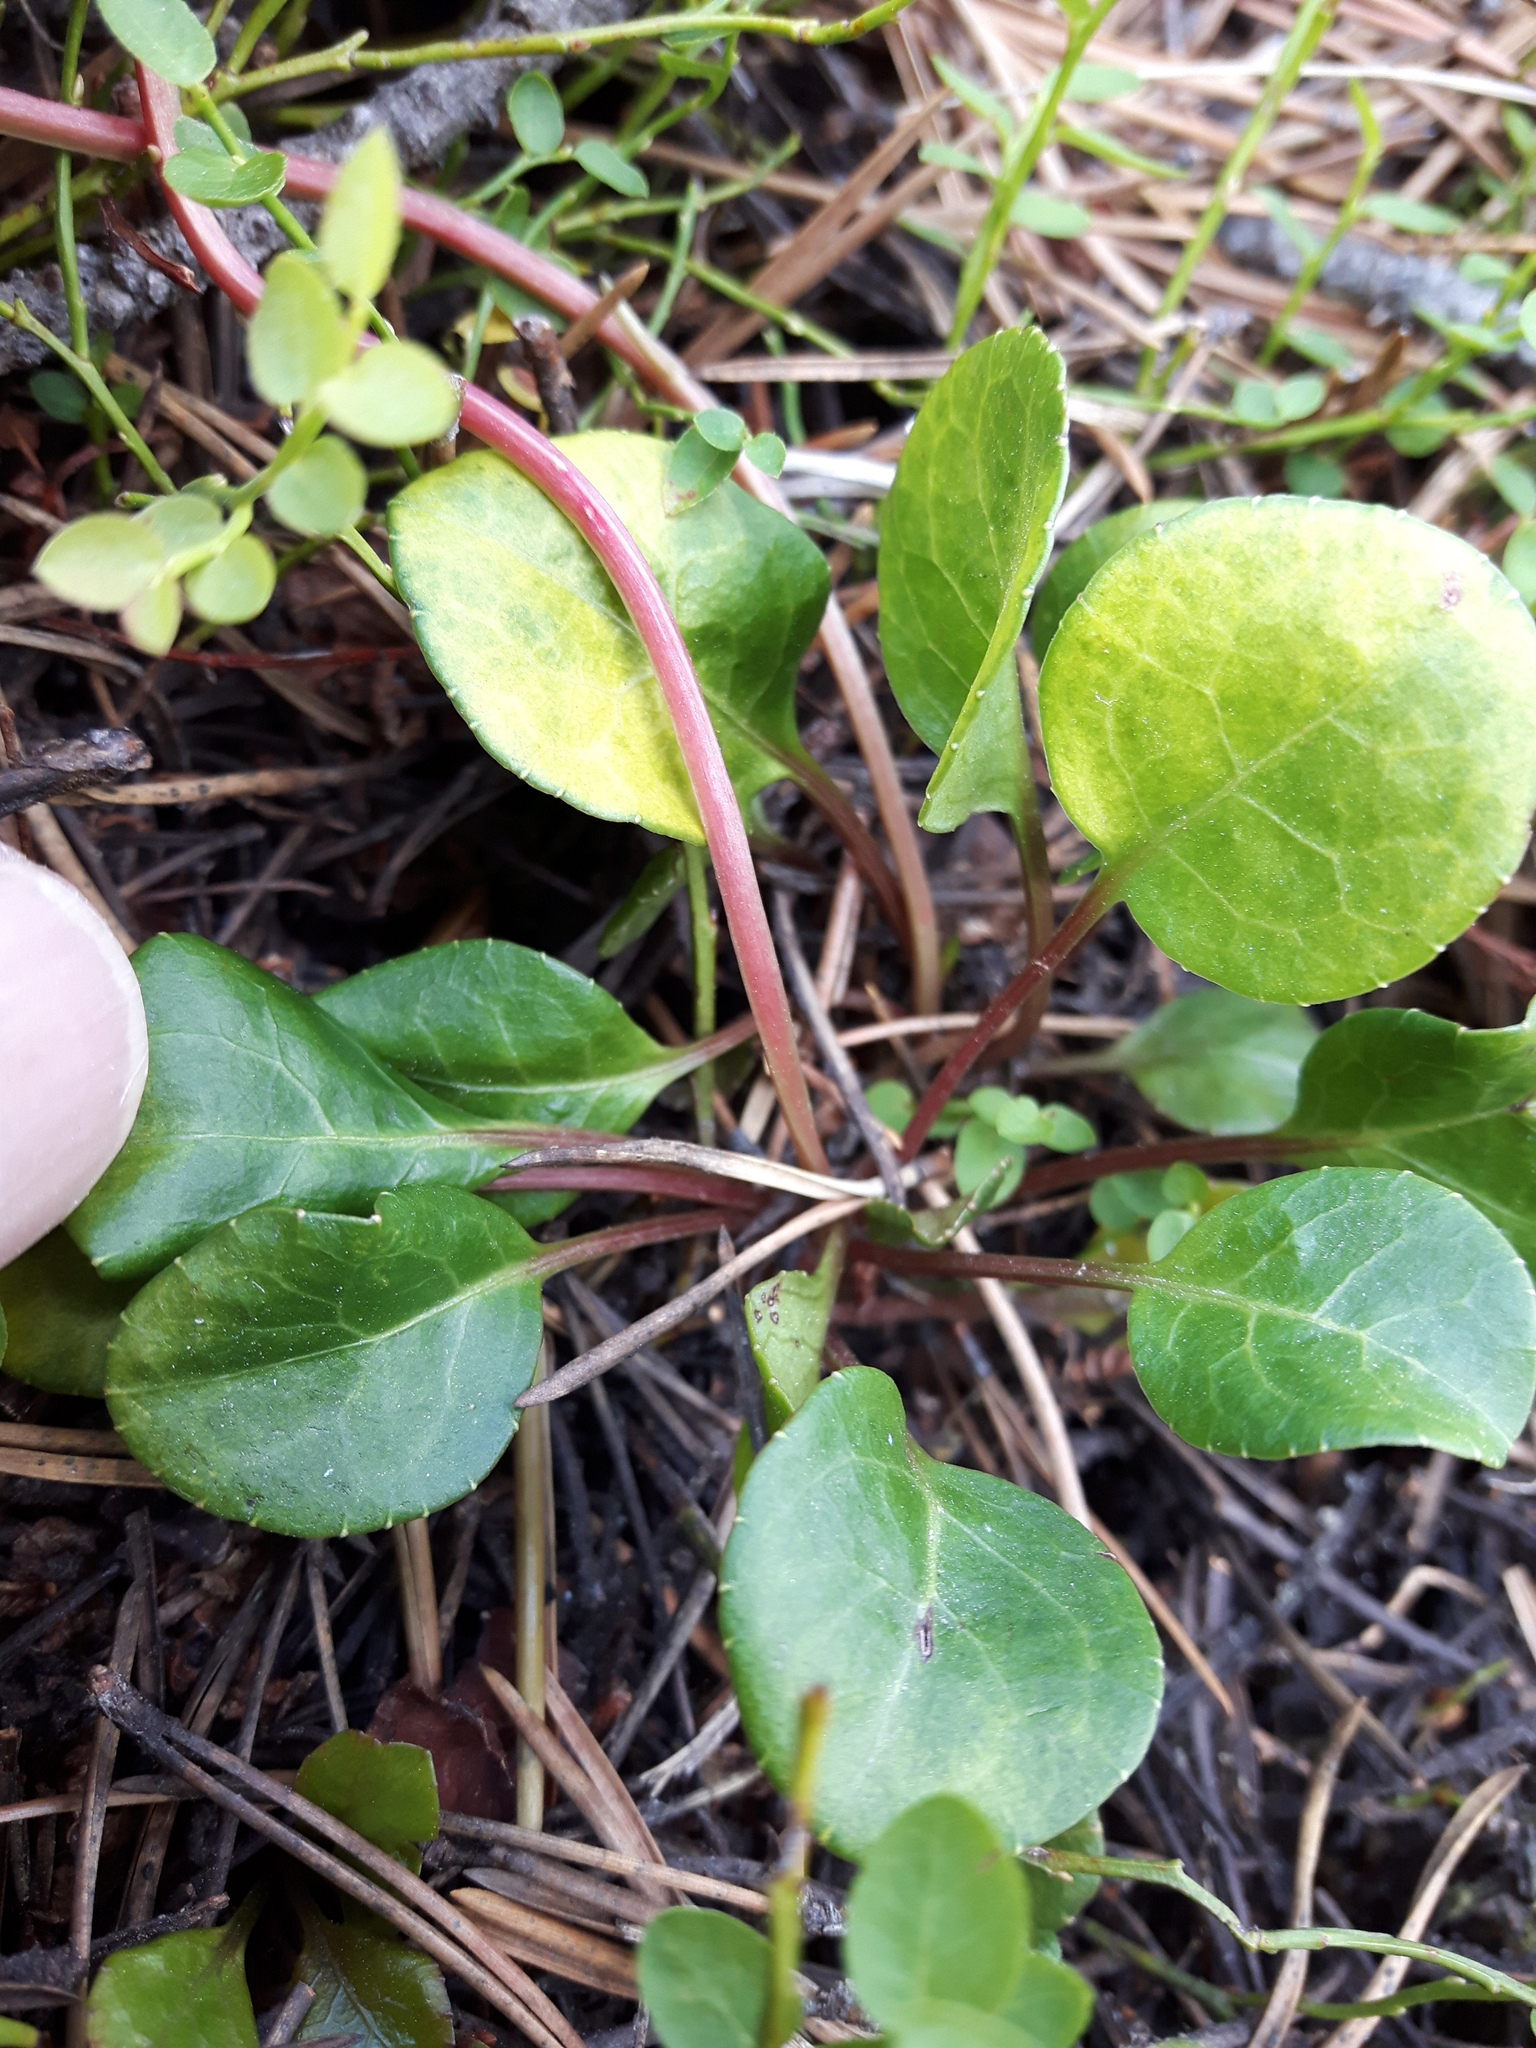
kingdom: Plantae
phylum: Tracheophyta
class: Magnoliopsida
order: Ericales
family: Ericaceae
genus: Pyrola
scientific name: Pyrola chlorantha
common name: Green wintergreen
